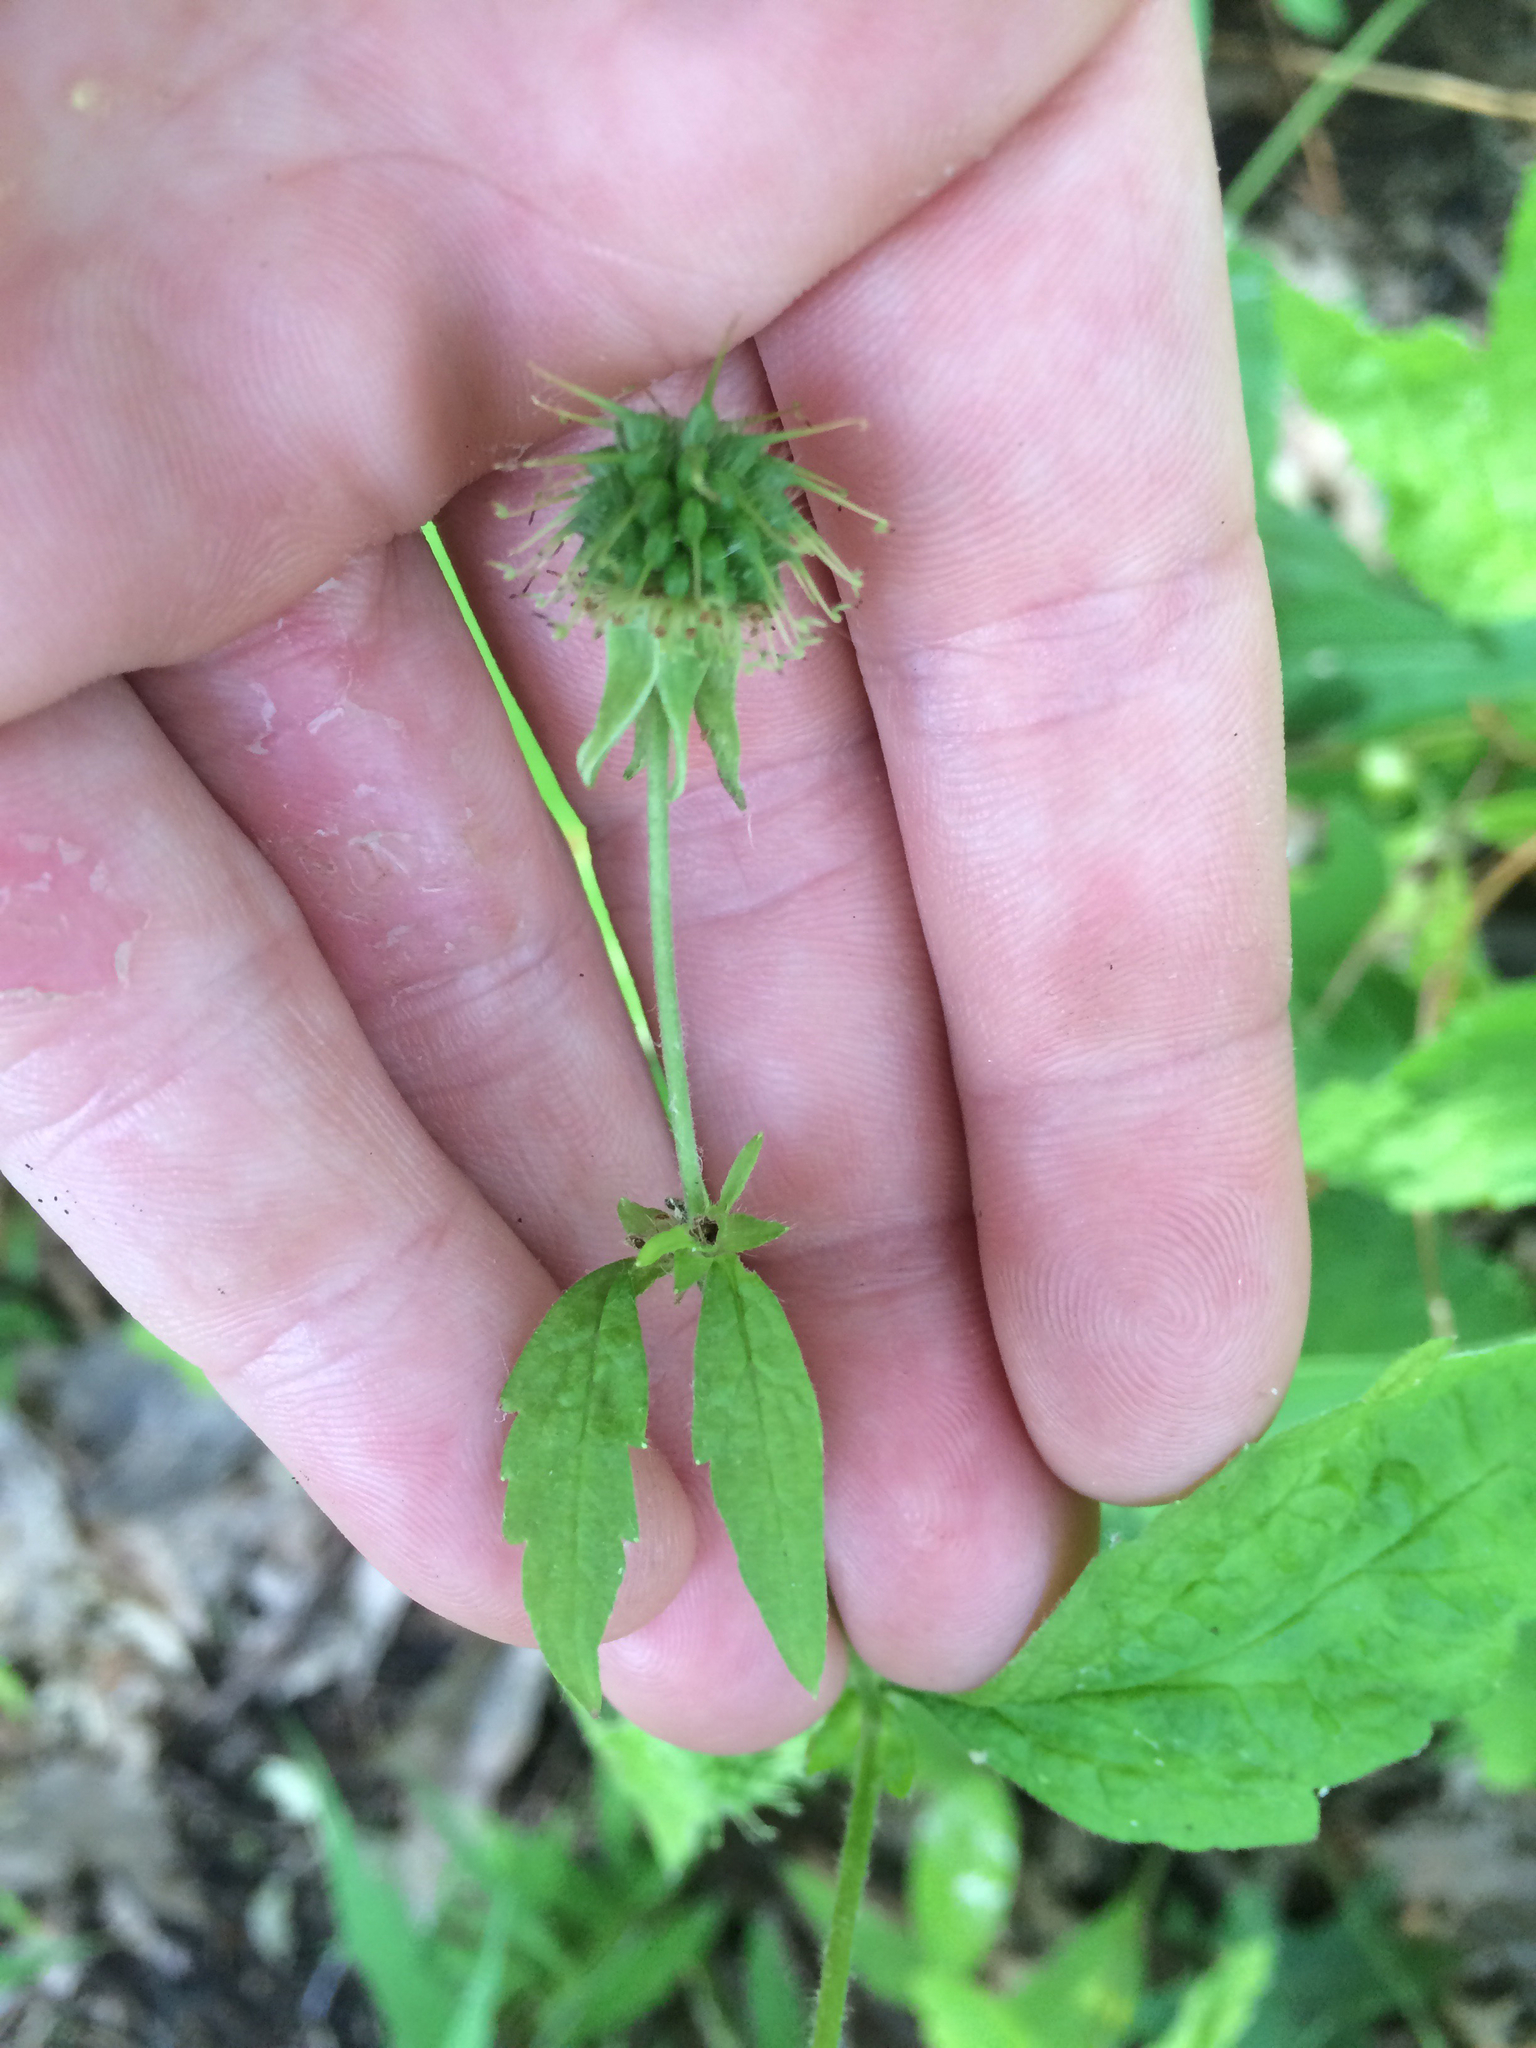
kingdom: Plantae
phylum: Tracheophyta
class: Magnoliopsida
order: Rosales
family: Rosaceae
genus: Geum
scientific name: Geum canadense
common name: White avens
